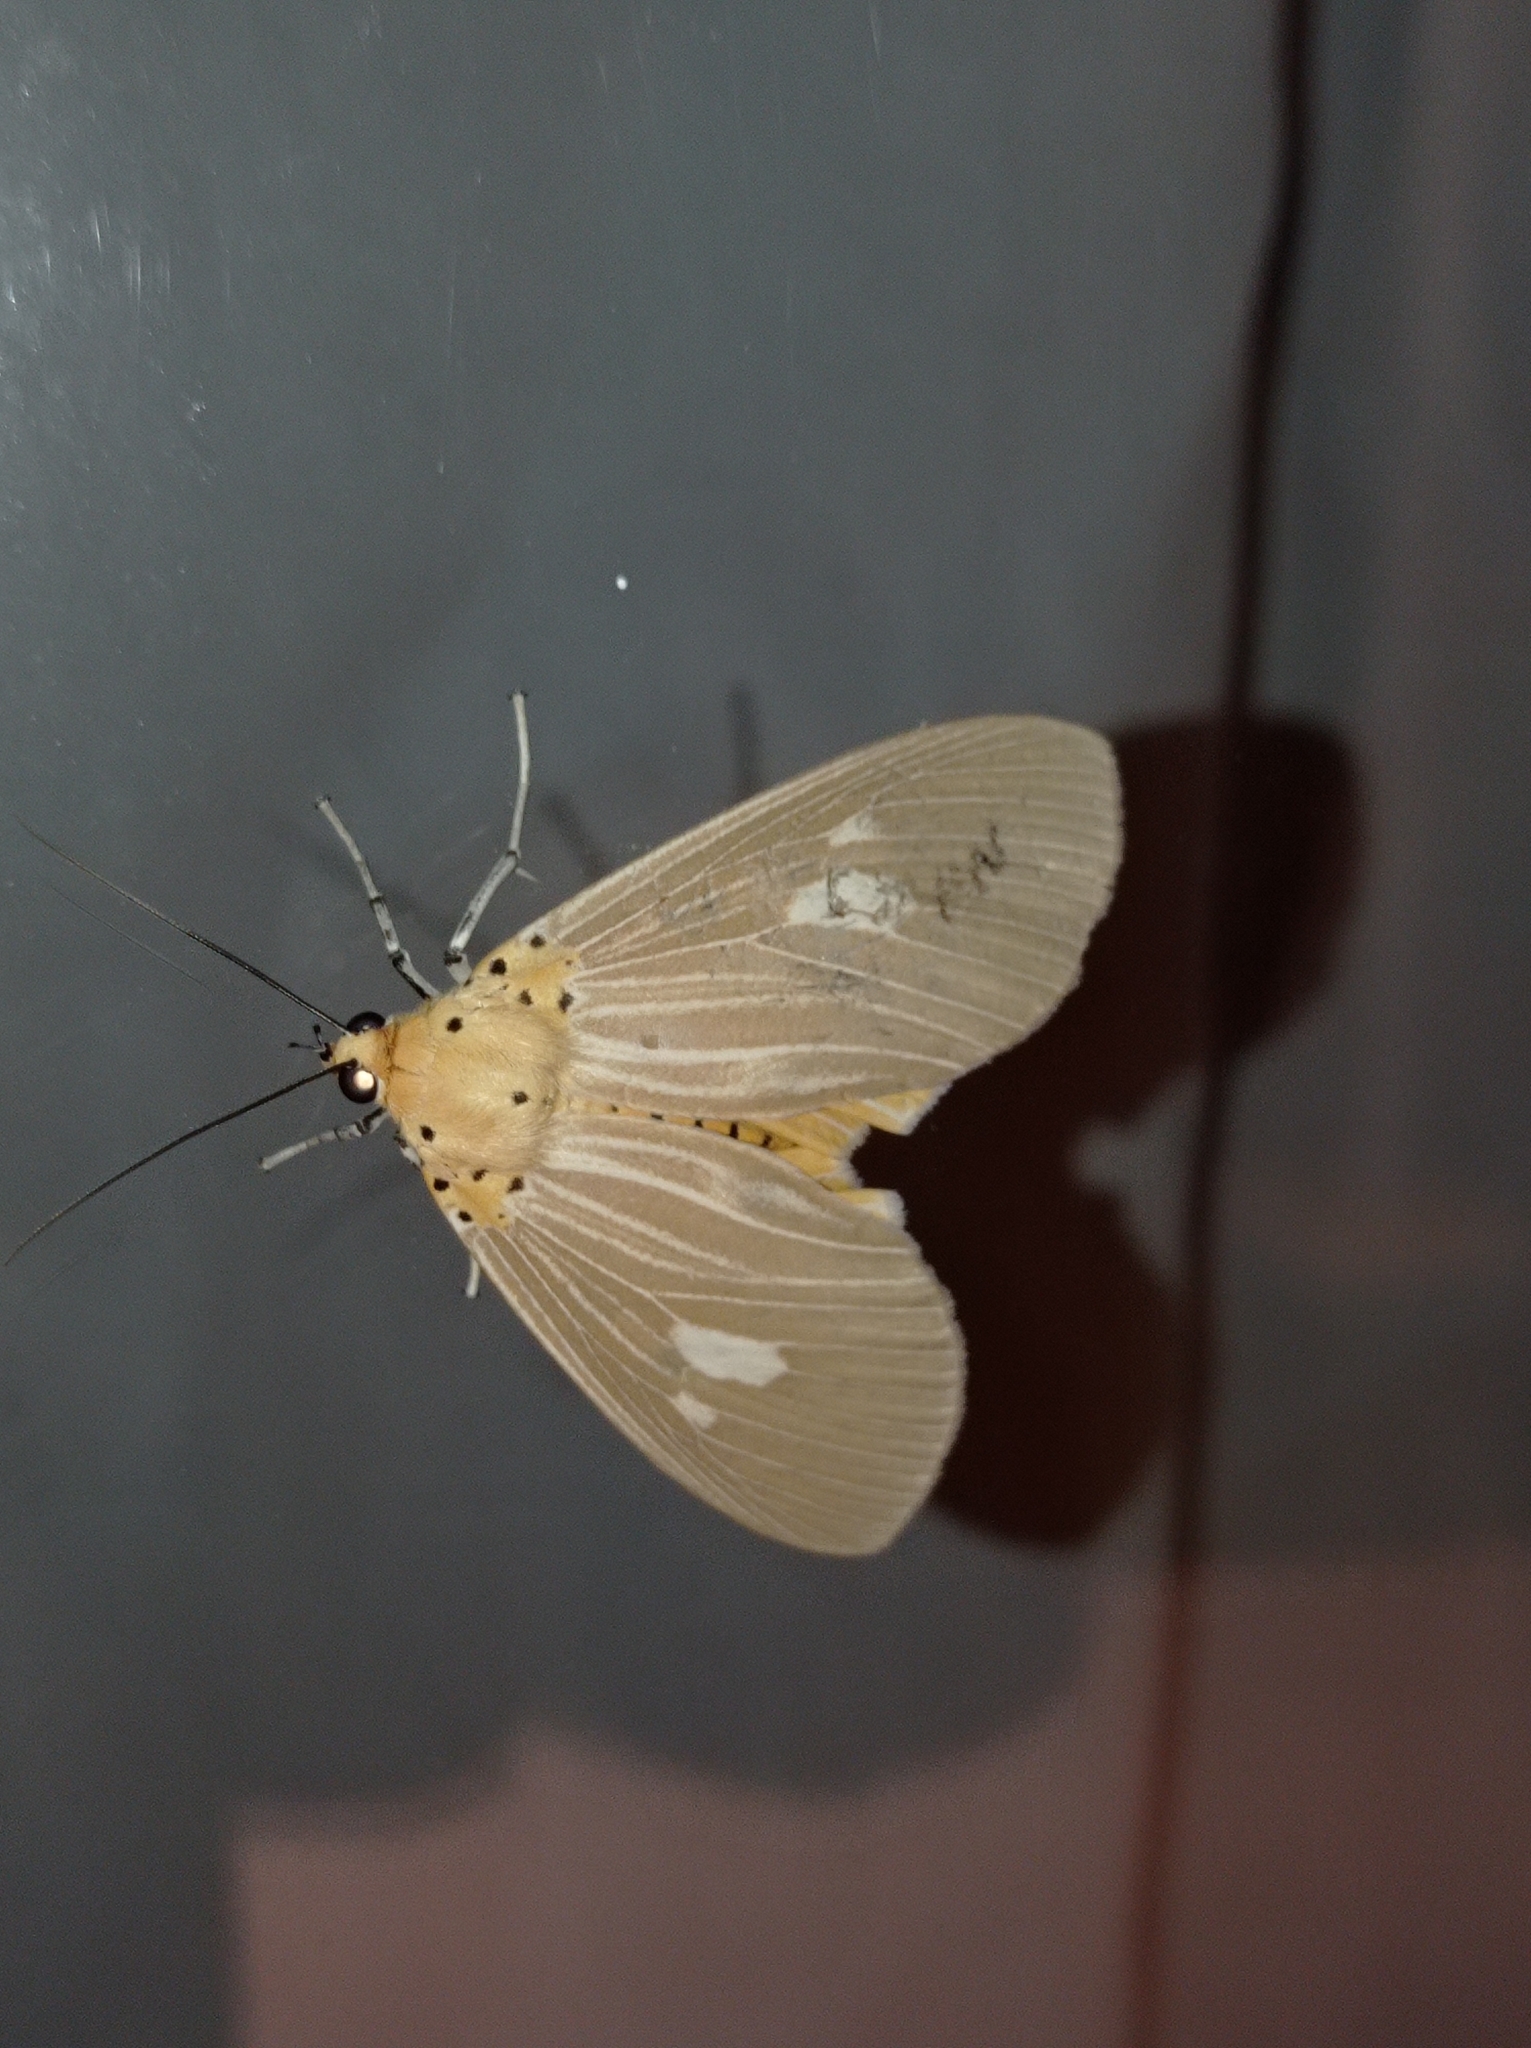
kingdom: Animalia
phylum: Arthropoda
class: Insecta
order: Lepidoptera
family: Erebidae
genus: Asota
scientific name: Asota plaginota
